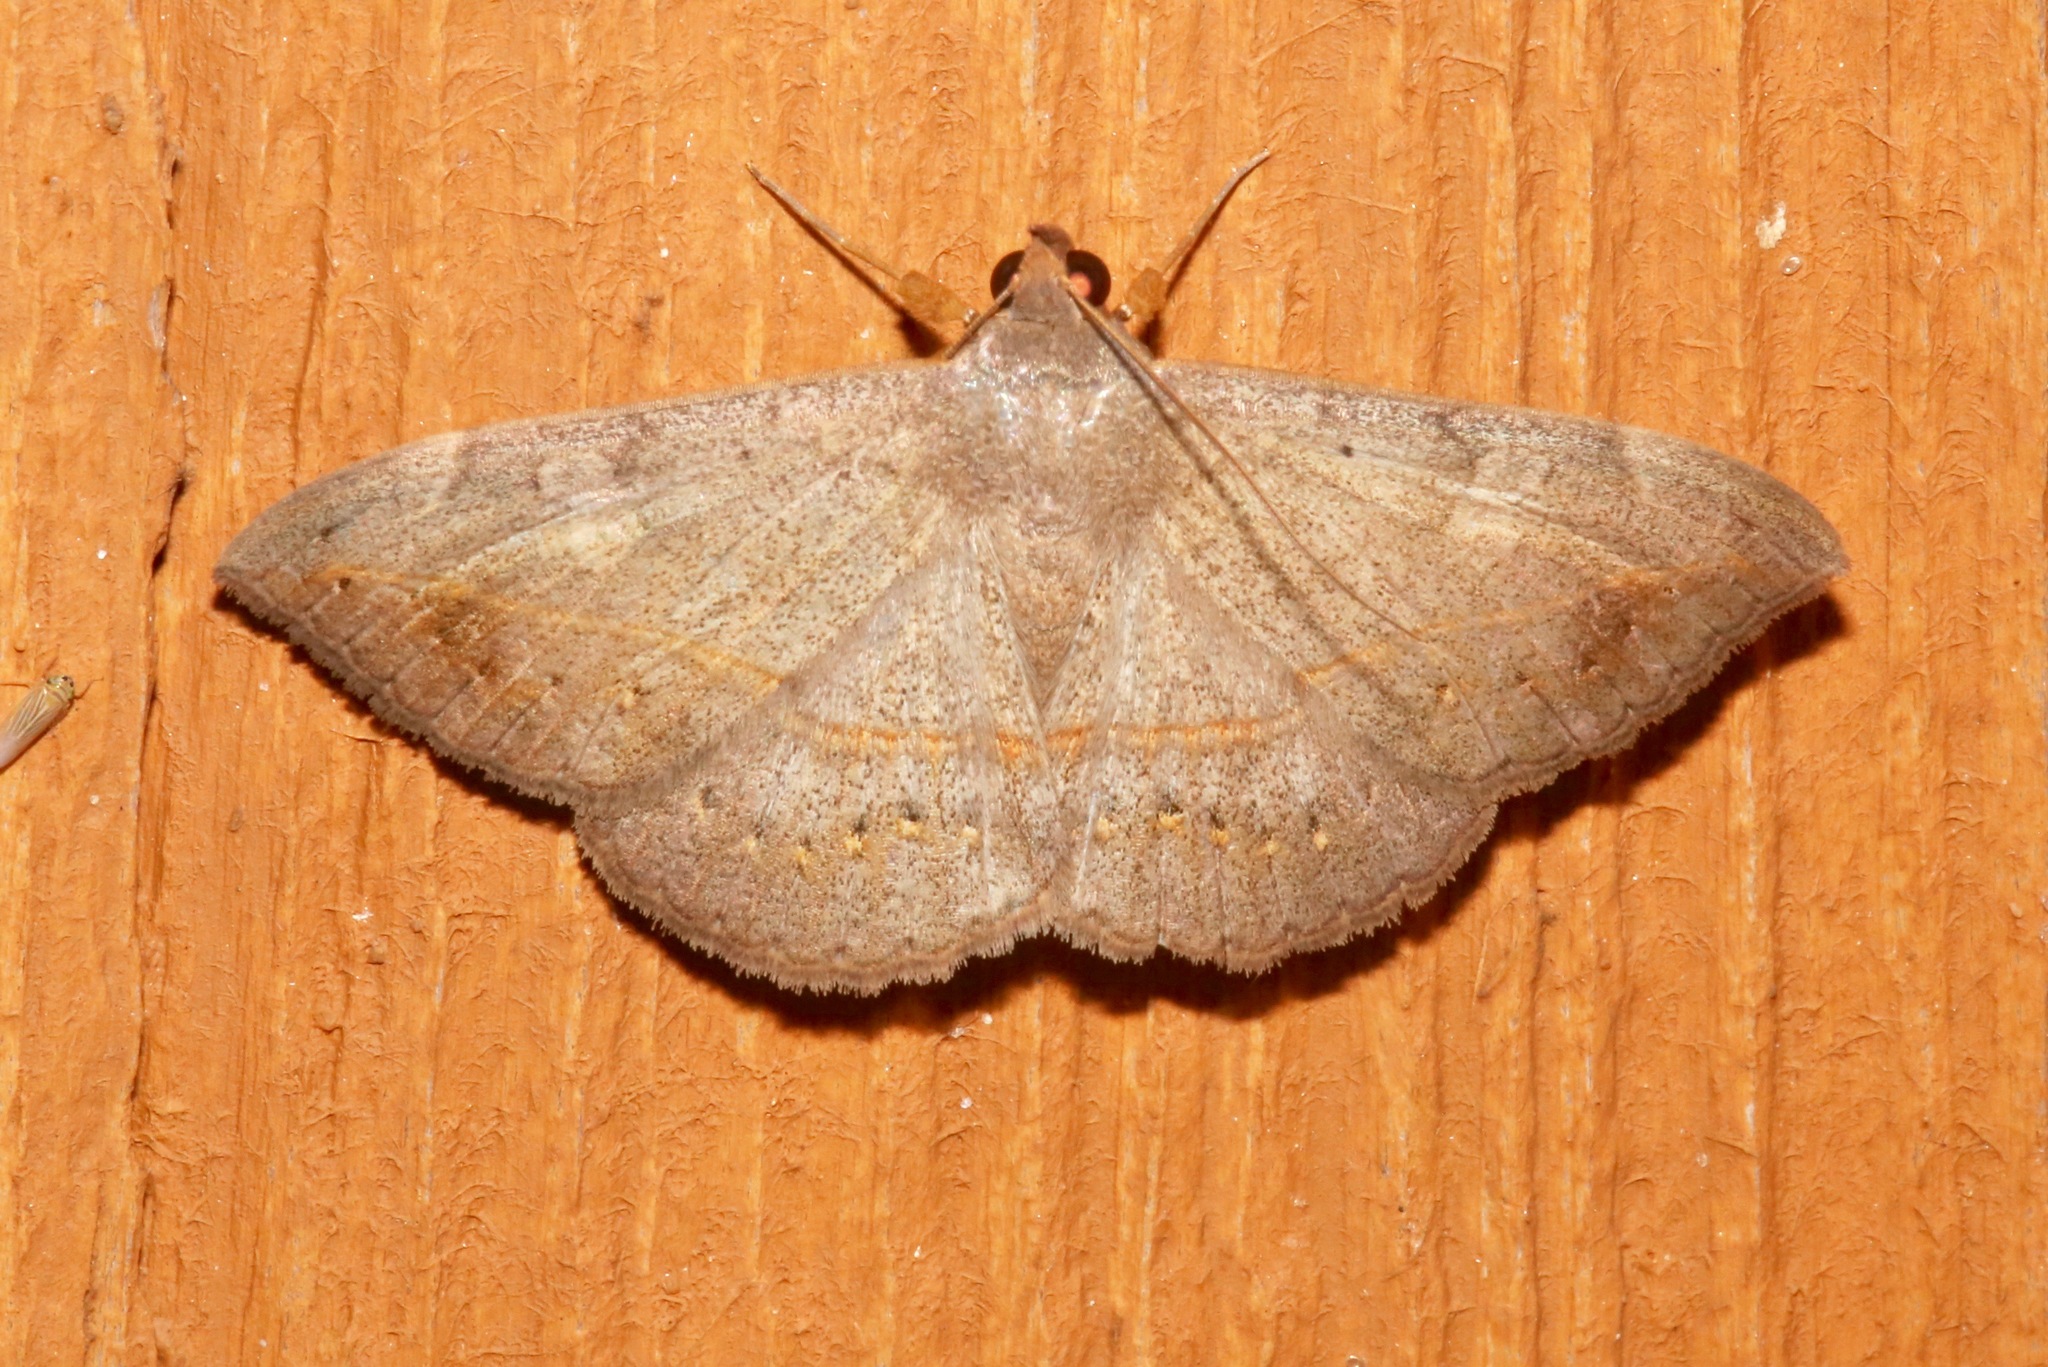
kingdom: Animalia
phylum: Arthropoda
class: Insecta
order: Lepidoptera
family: Erebidae
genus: Anticarsia
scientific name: Anticarsia gemmatalis
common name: Cutworm moth
